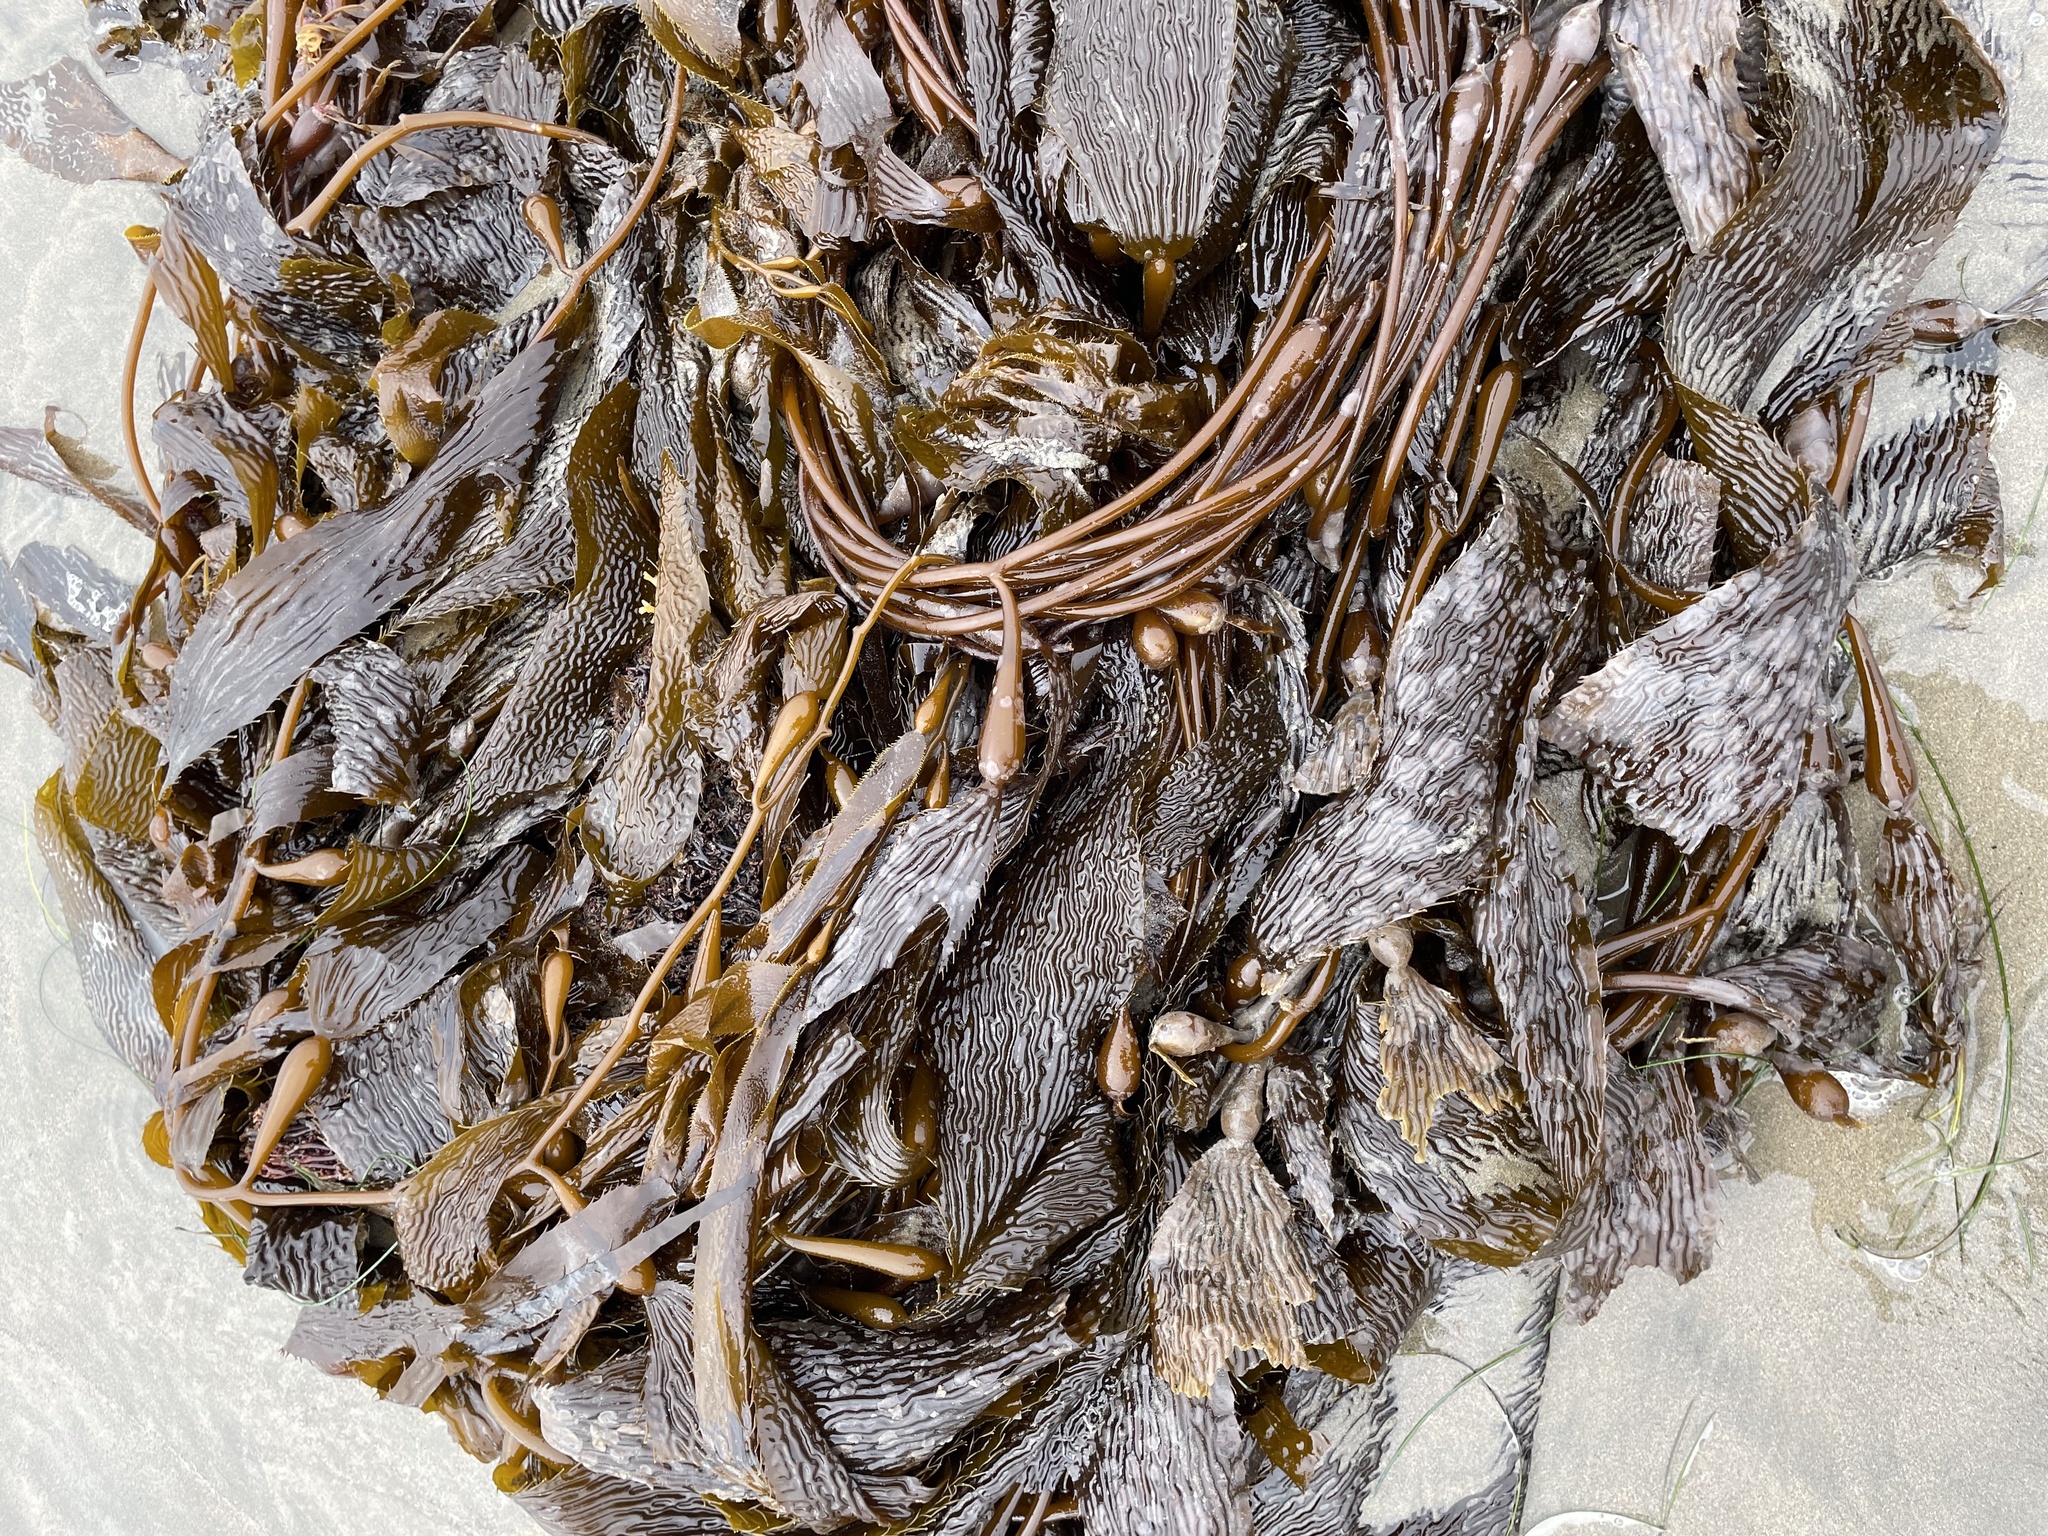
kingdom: Chromista
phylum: Ochrophyta
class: Phaeophyceae
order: Laminariales
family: Laminariaceae
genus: Macrocystis
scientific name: Macrocystis pyrifera
